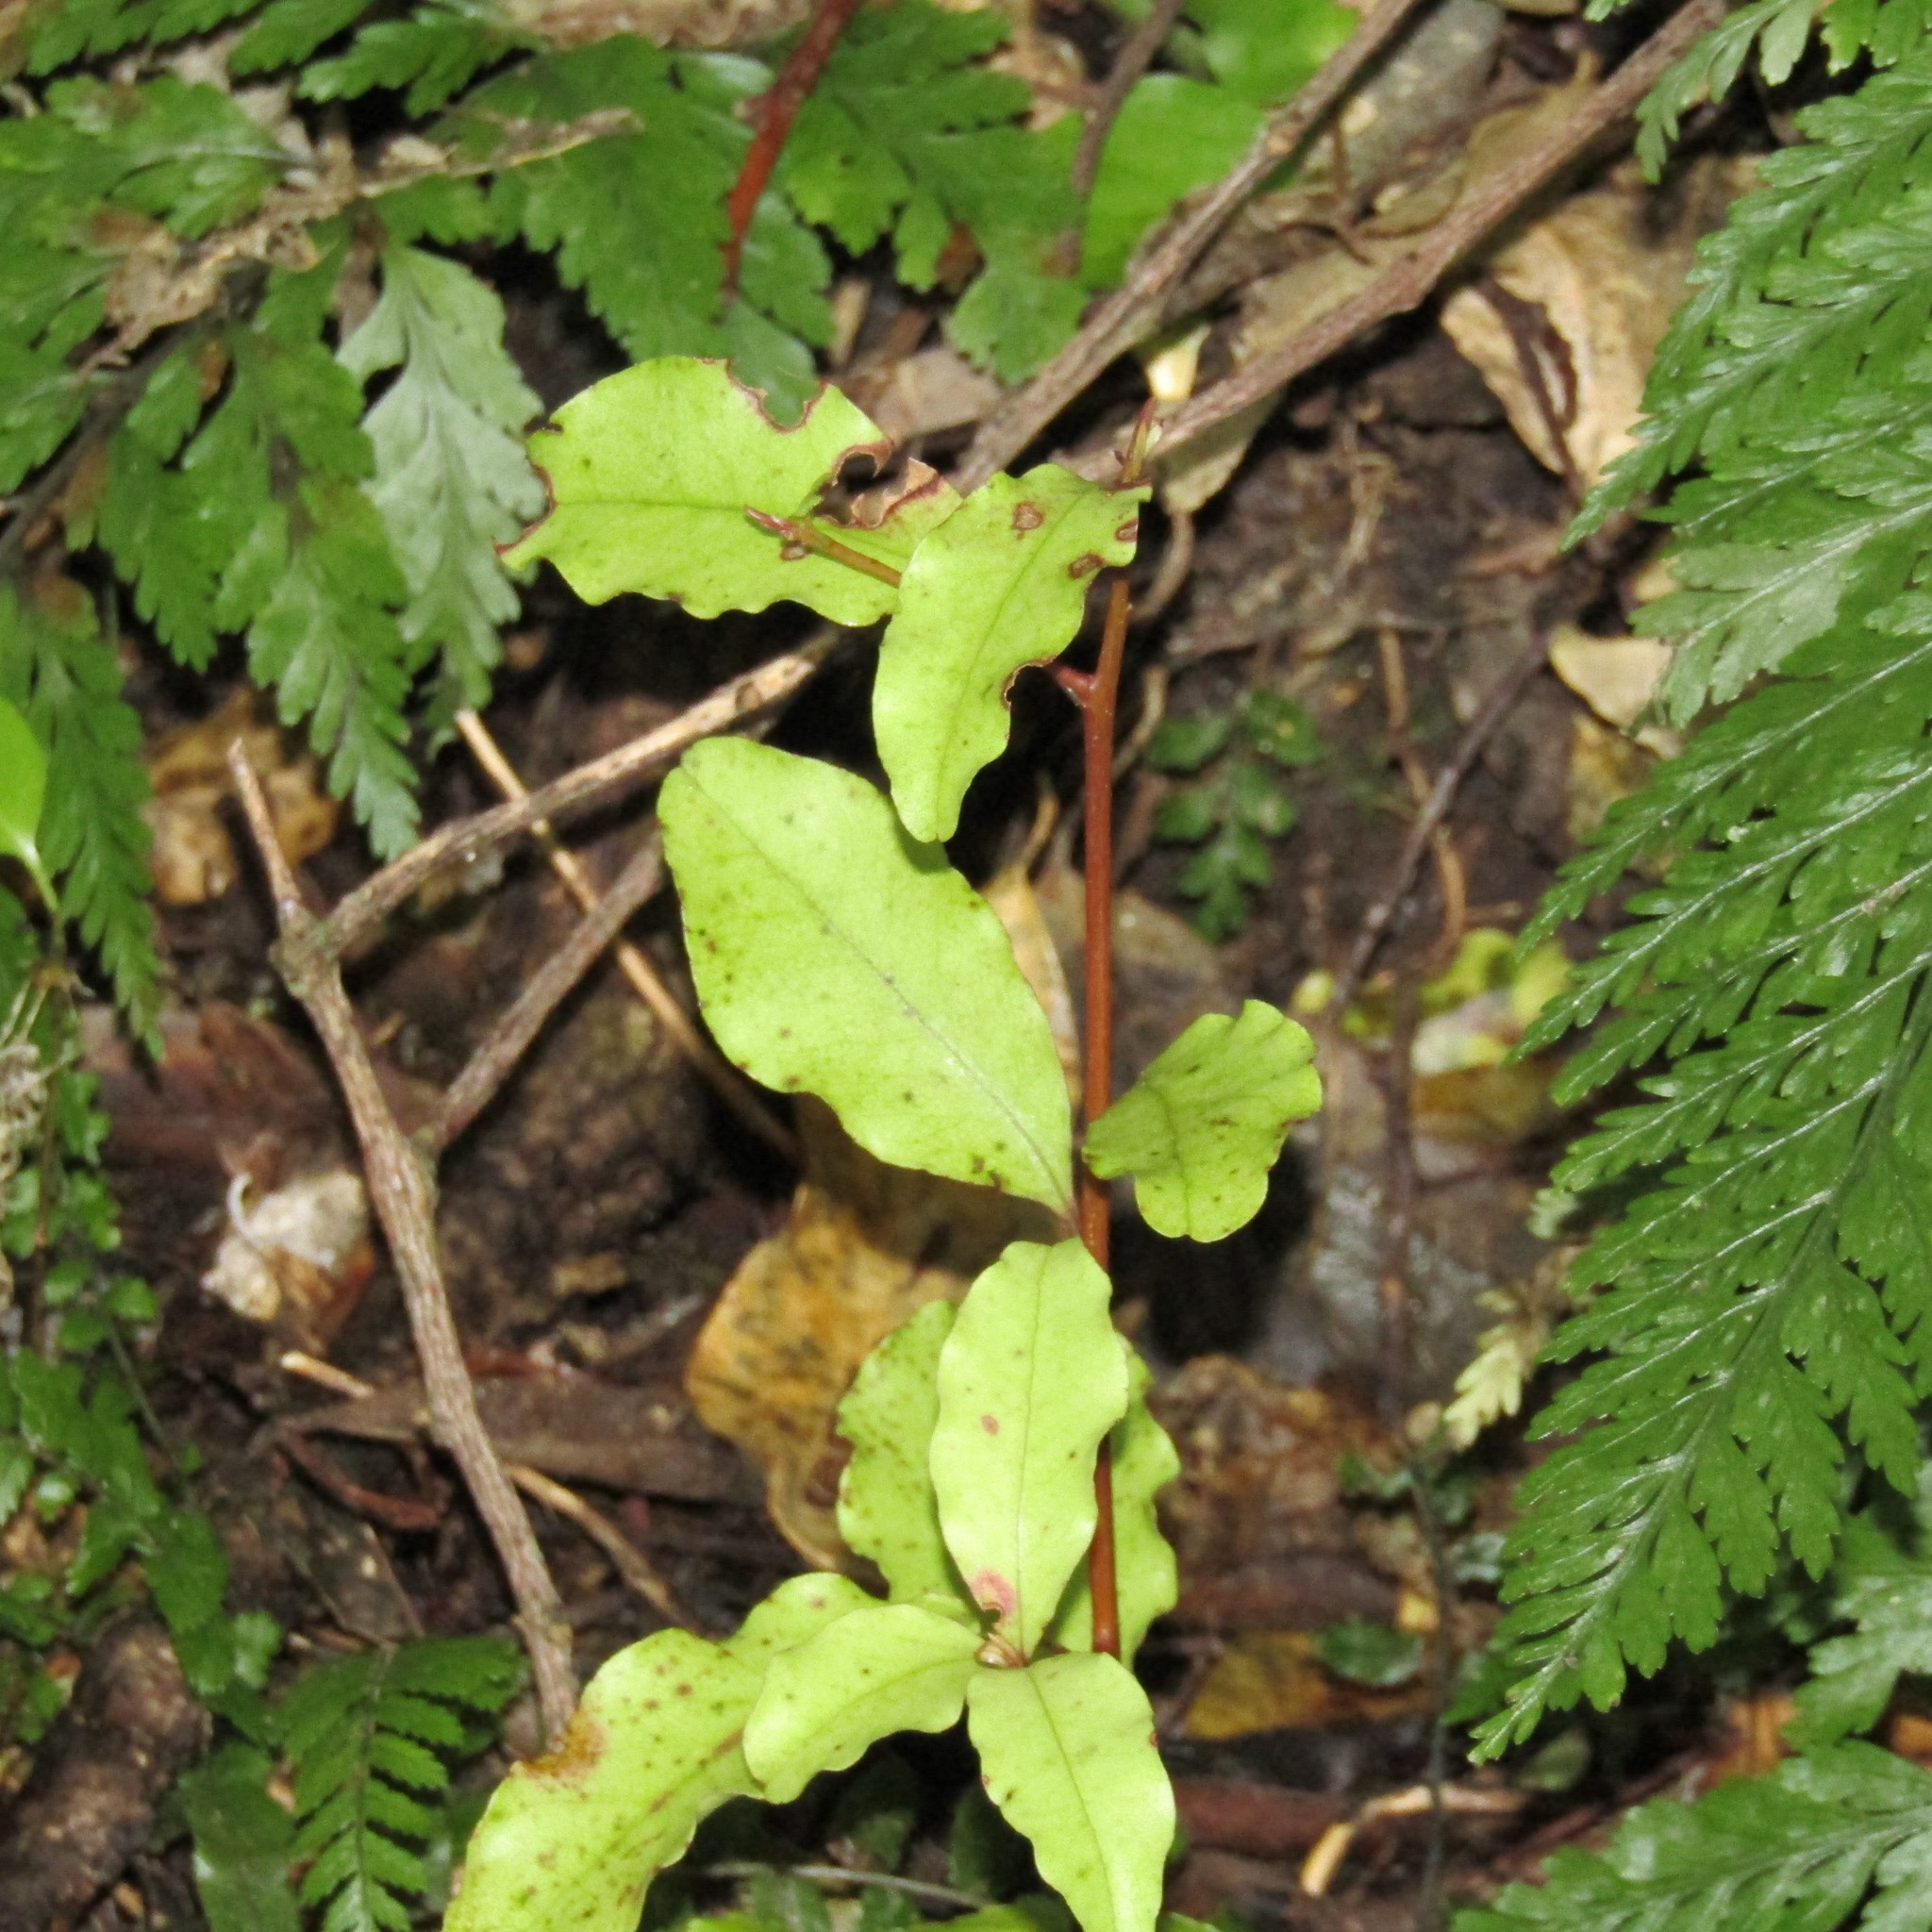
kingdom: Plantae
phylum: Tracheophyta
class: Magnoliopsida
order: Ericales
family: Primulaceae
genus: Myrsine
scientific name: Myrsine australis
